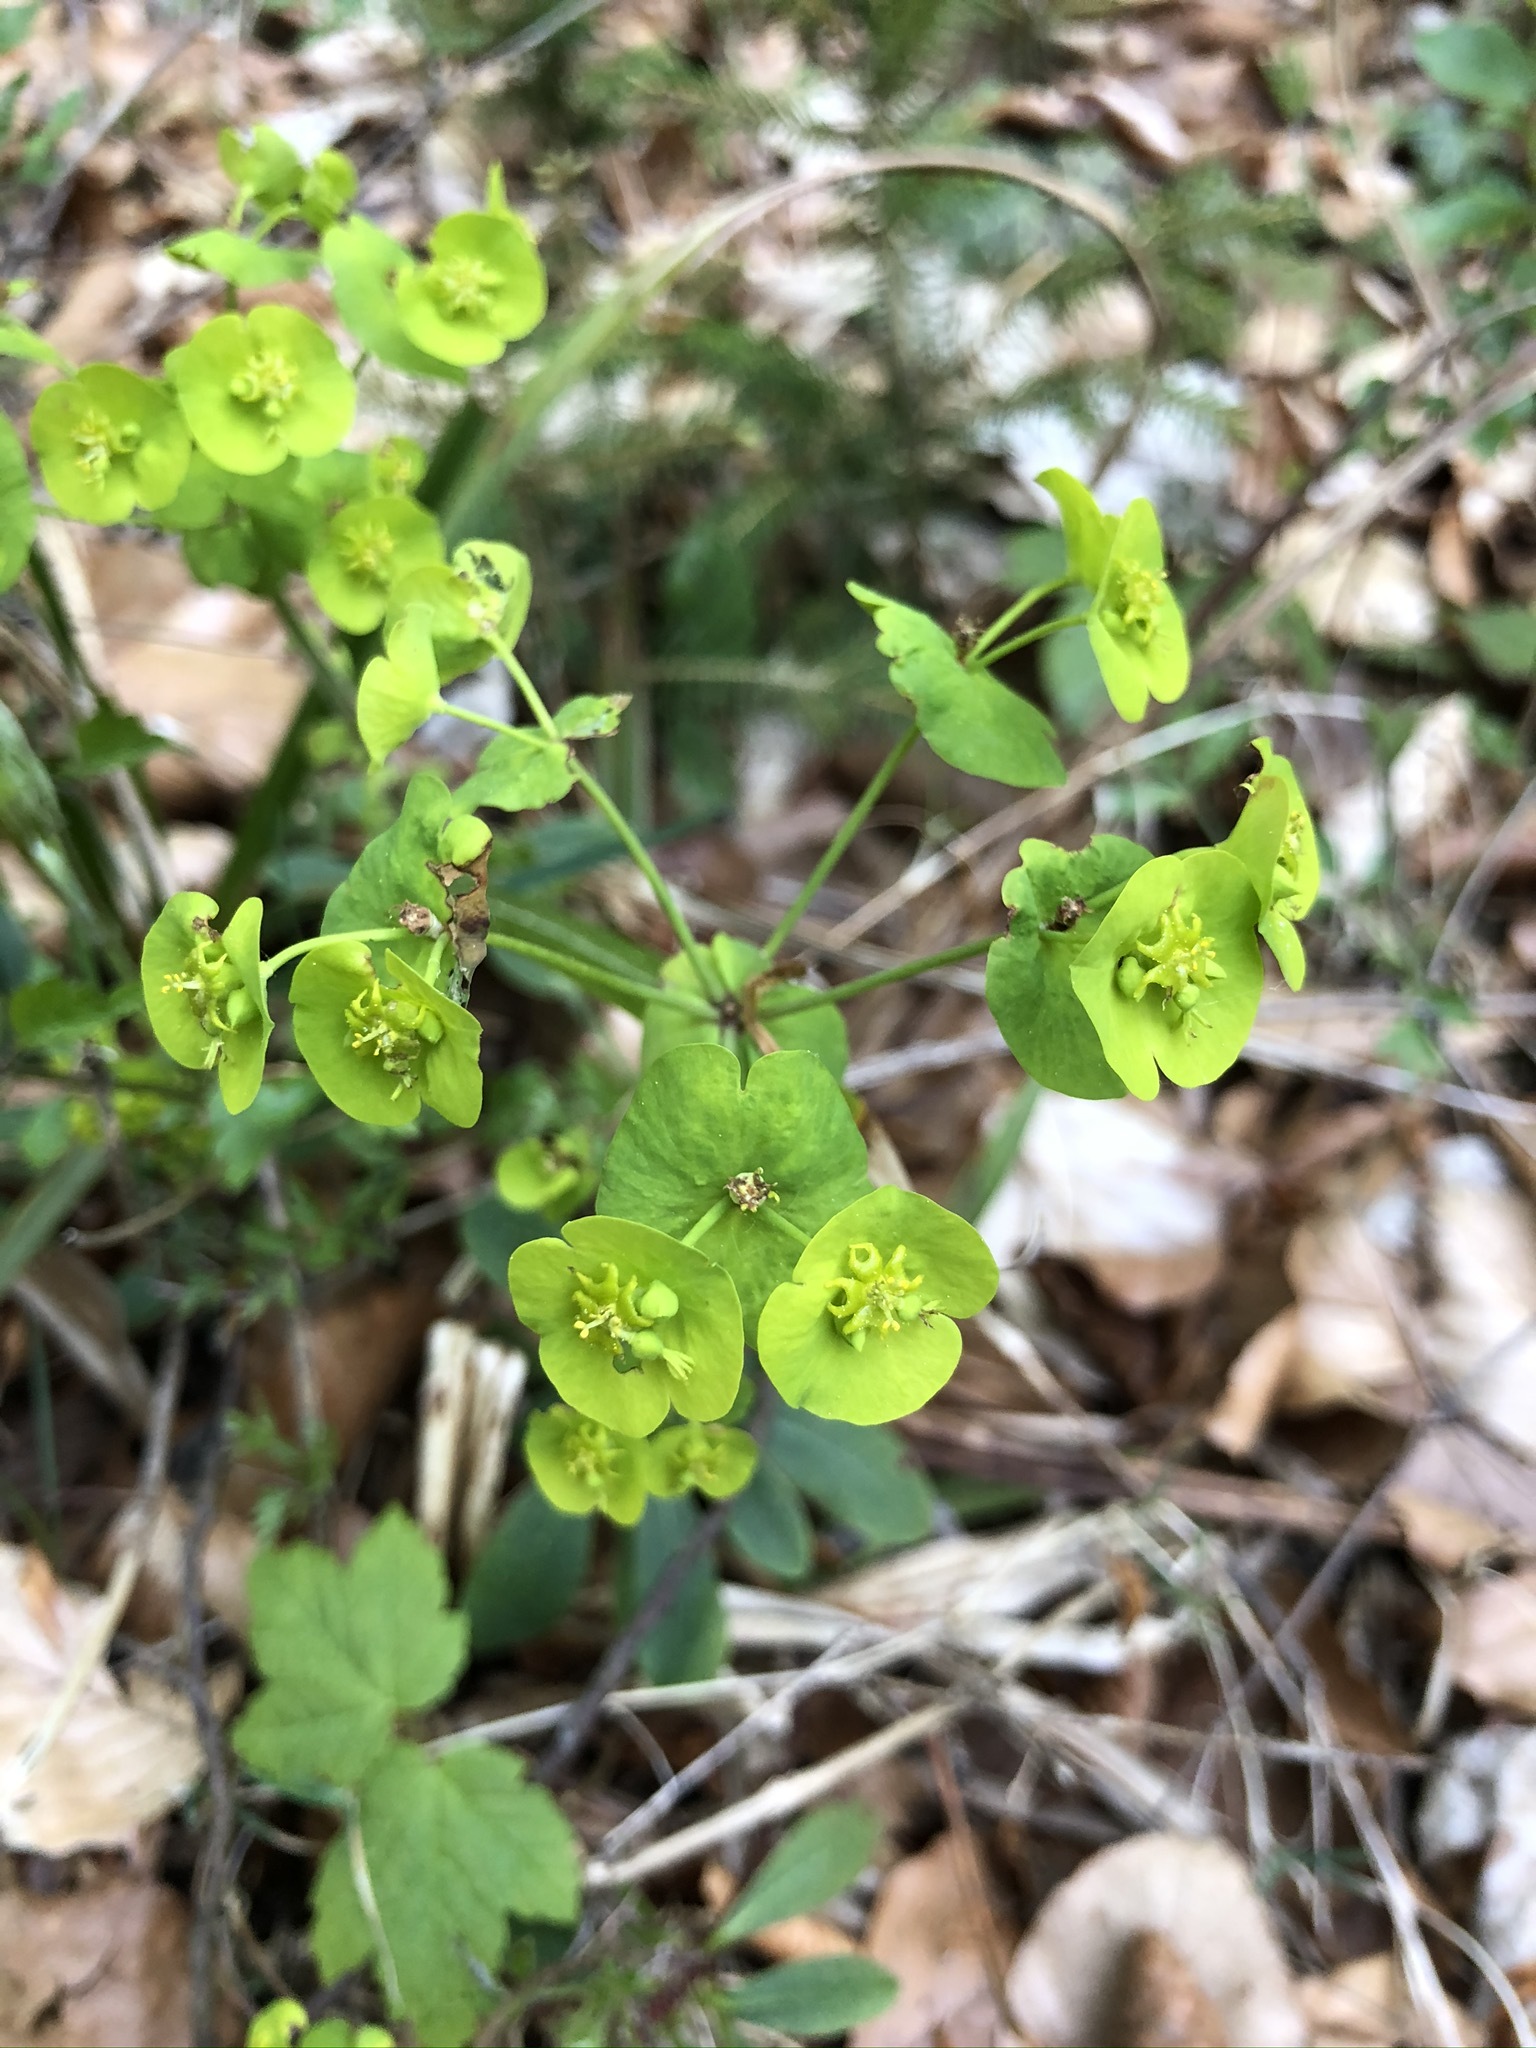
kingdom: Plantae
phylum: Tracheophyta
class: Magnoliopsida
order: Malpighiales
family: Euphorbiaceae
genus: Euphorbia
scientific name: Euphorbia amygdaloides
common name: Wood spurge
